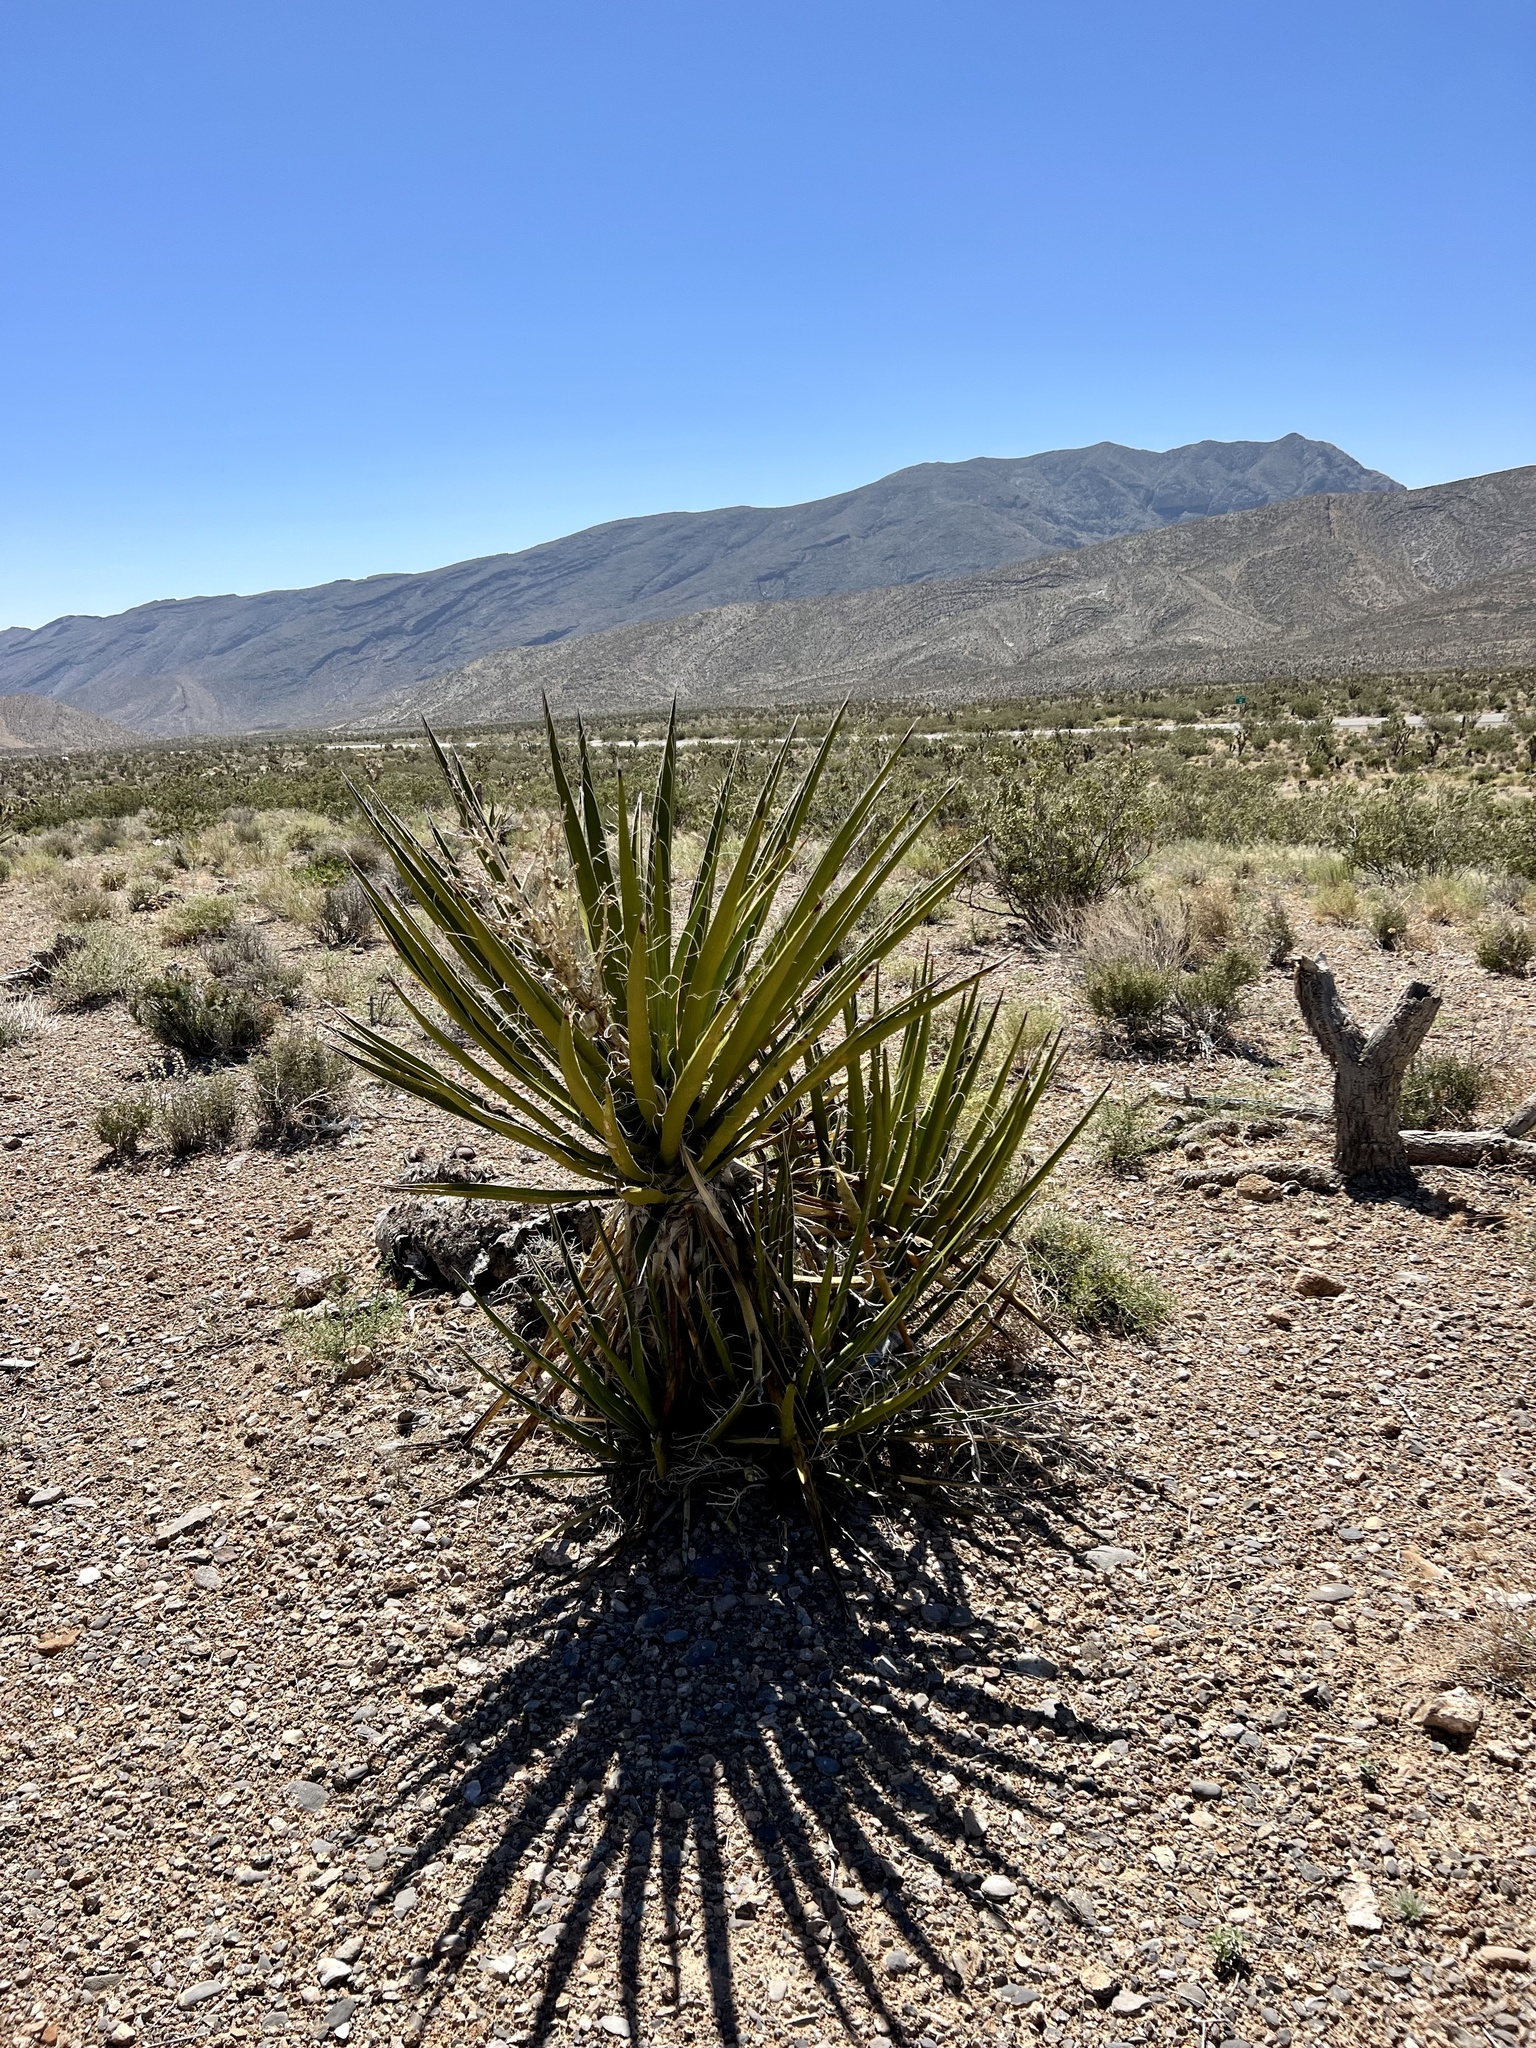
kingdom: Plantae
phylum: Tracheophyta
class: Liliopsida
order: Asparagales
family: Asparagaceae
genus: Yucca
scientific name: Yucca schidigera
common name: Mojave yucca
